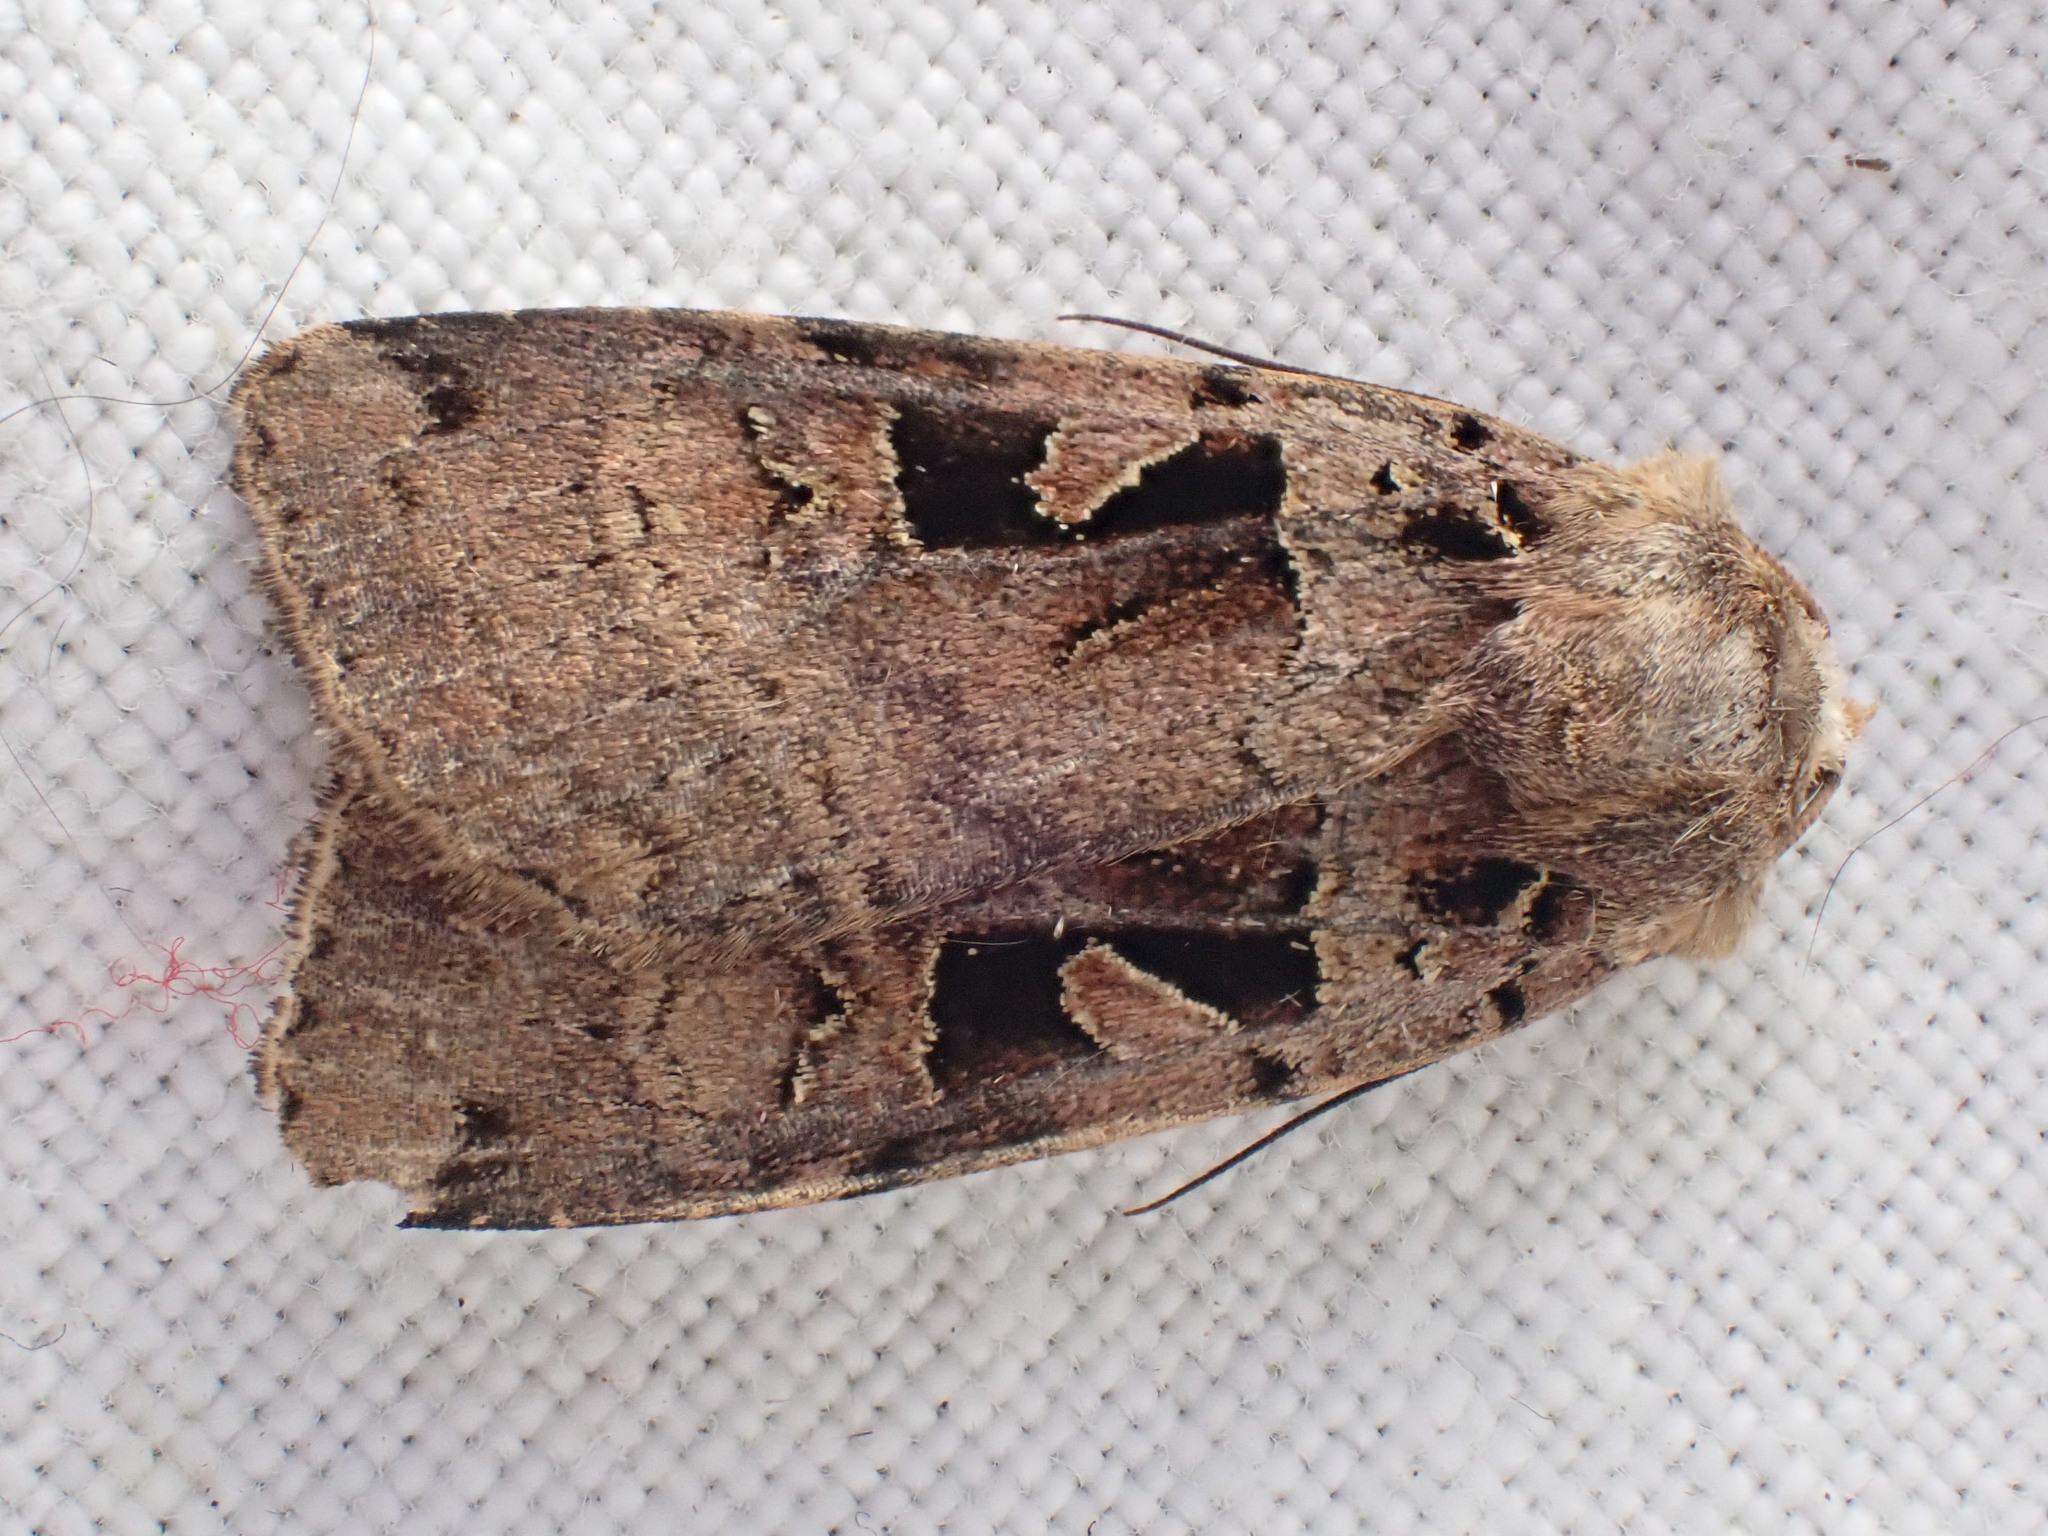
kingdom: Animalia
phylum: Arthropoda
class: Insecta
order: Lepidoptera
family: Noctuidae
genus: Xestia
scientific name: Xestia triangulum
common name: Double square-spot
